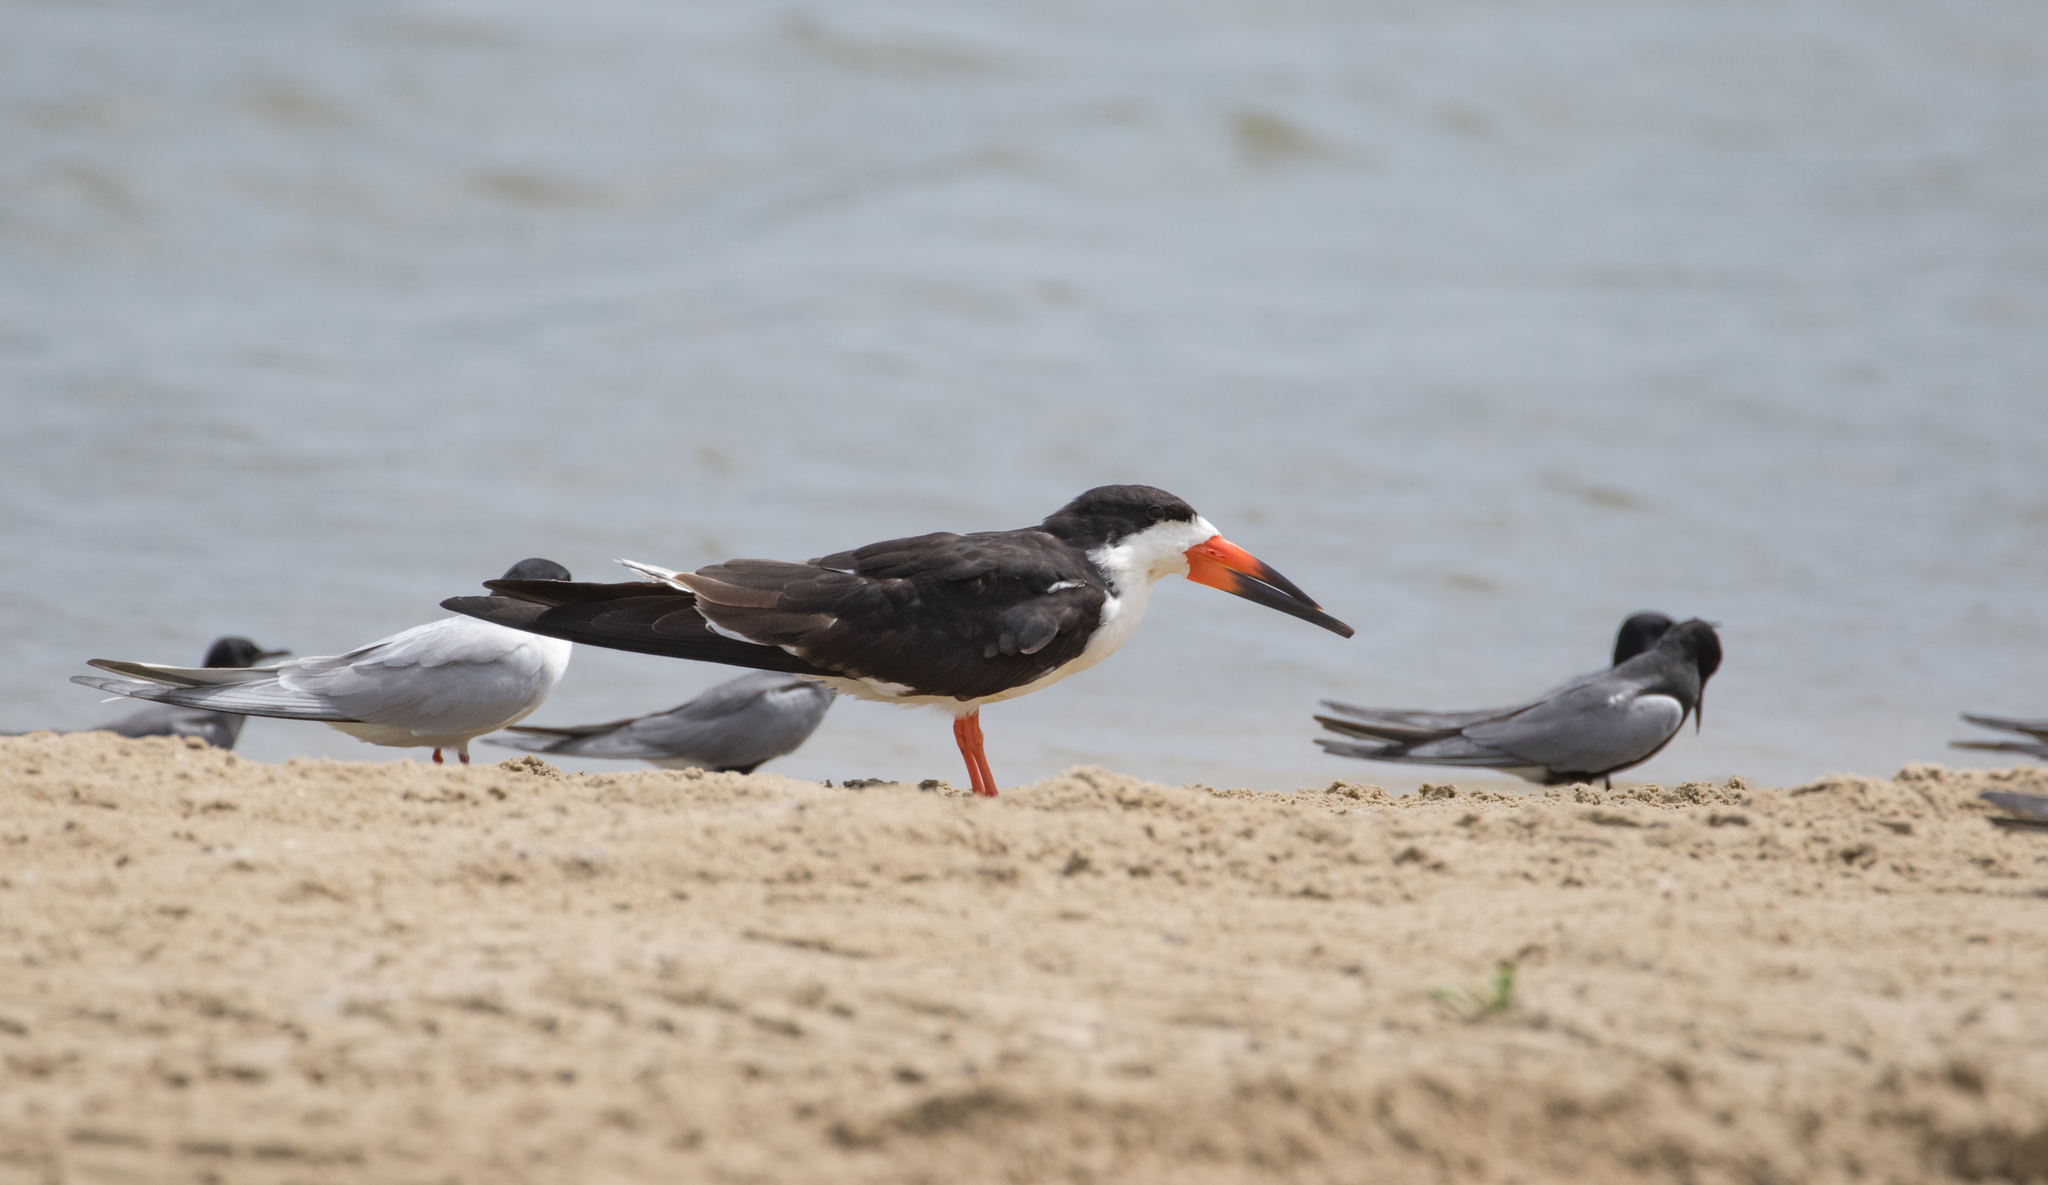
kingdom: Animalia
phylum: Chordata
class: Aves
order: Charadriiformes
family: Laridae
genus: Rynchops
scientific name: Rynchops niger
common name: Black skimmer
